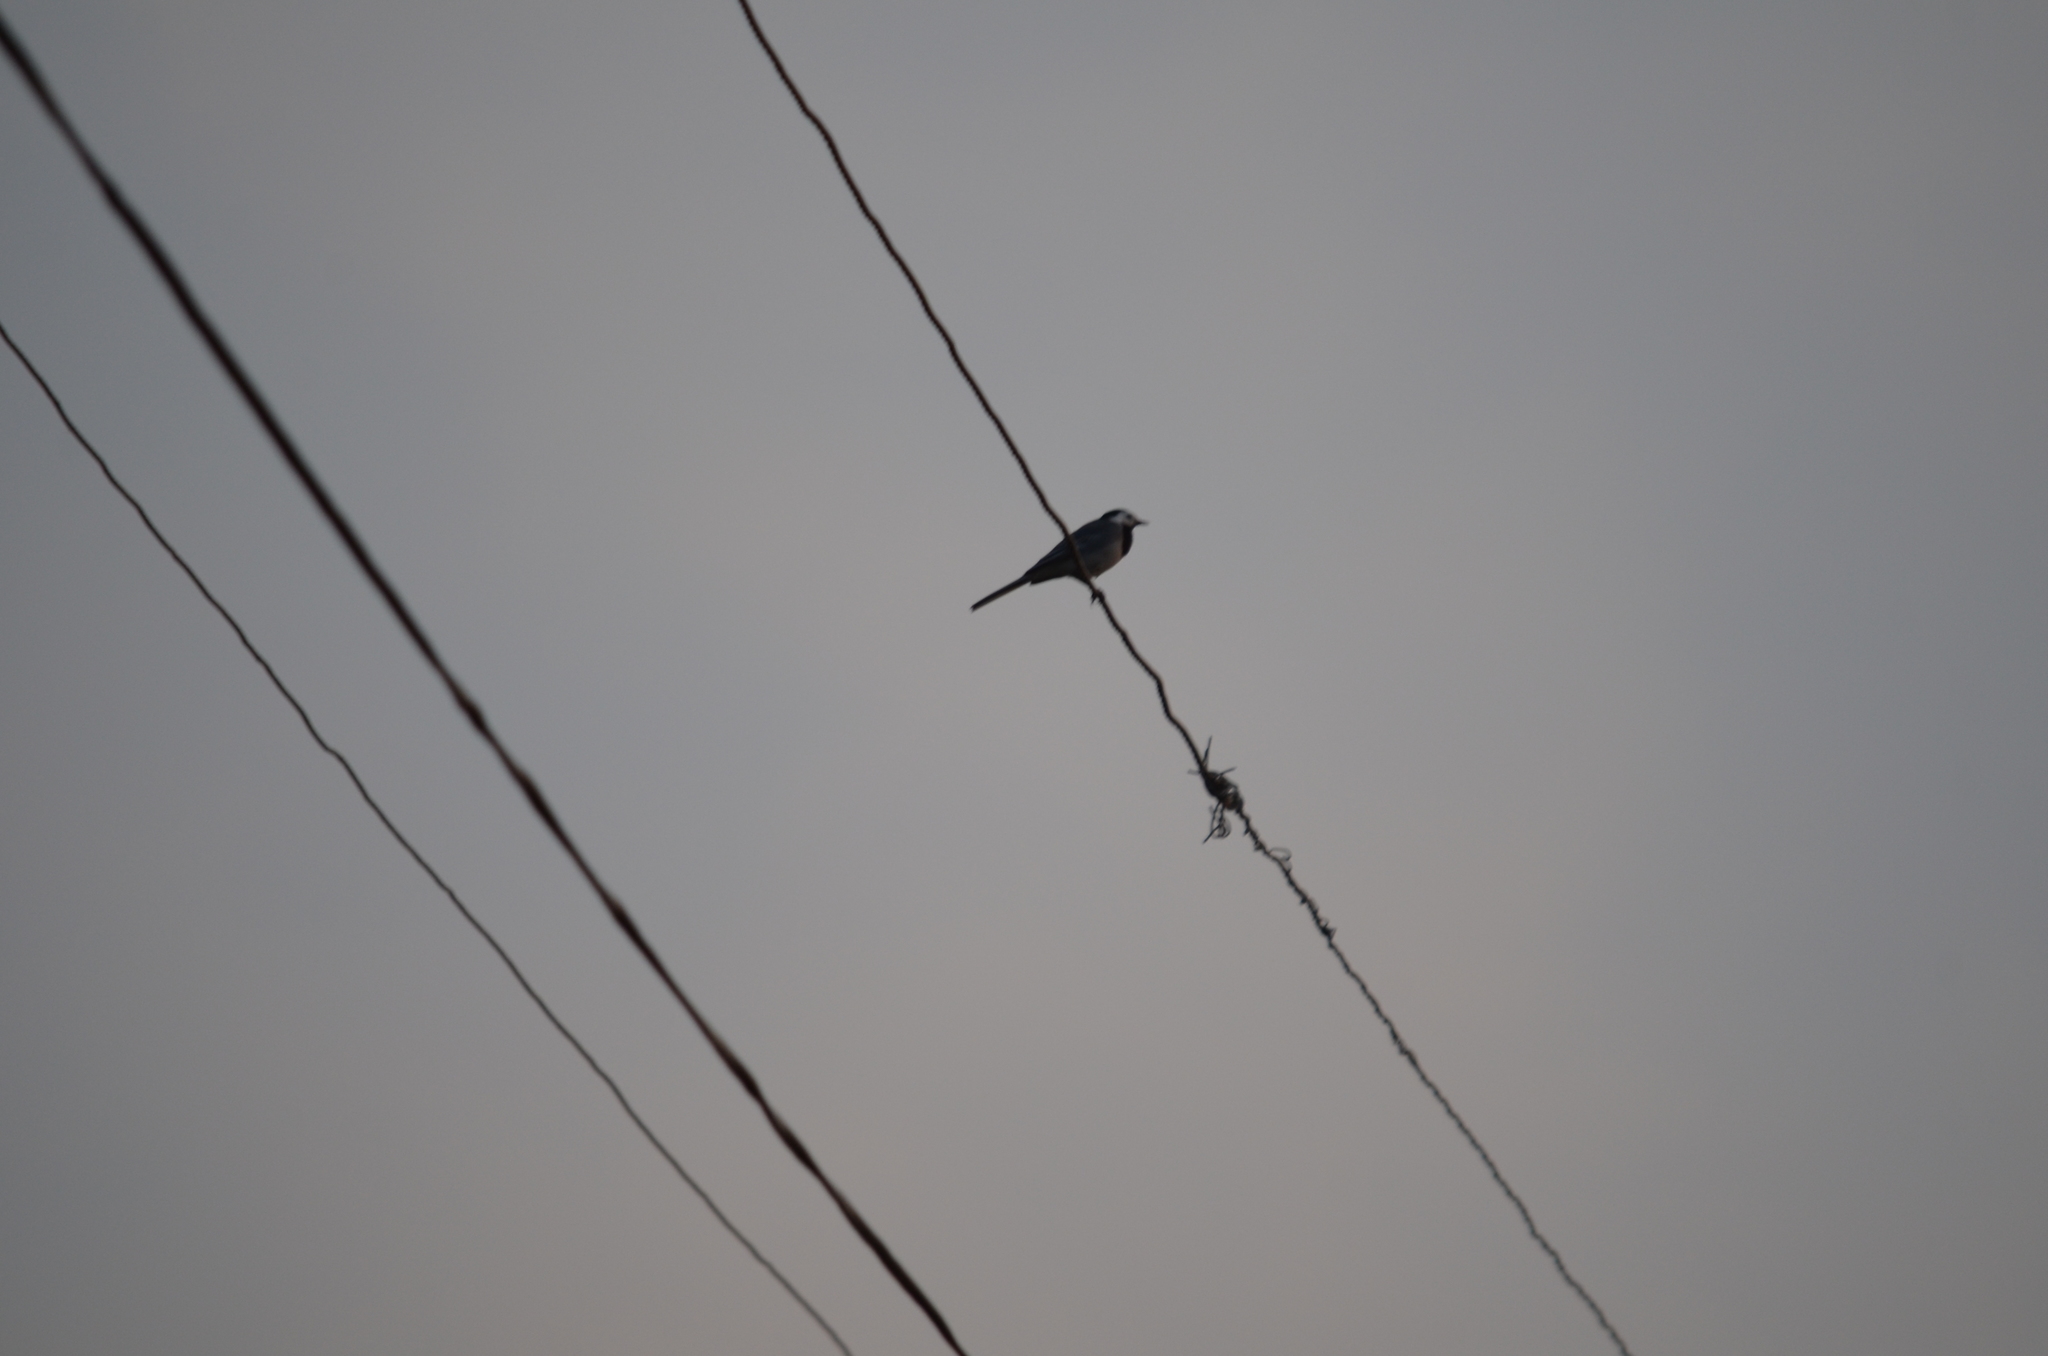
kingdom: Animalia
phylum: Chordata
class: Aves
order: Passeriformes
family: Motacillidae
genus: Motacilla
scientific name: Motacilla alba
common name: White wagtail
